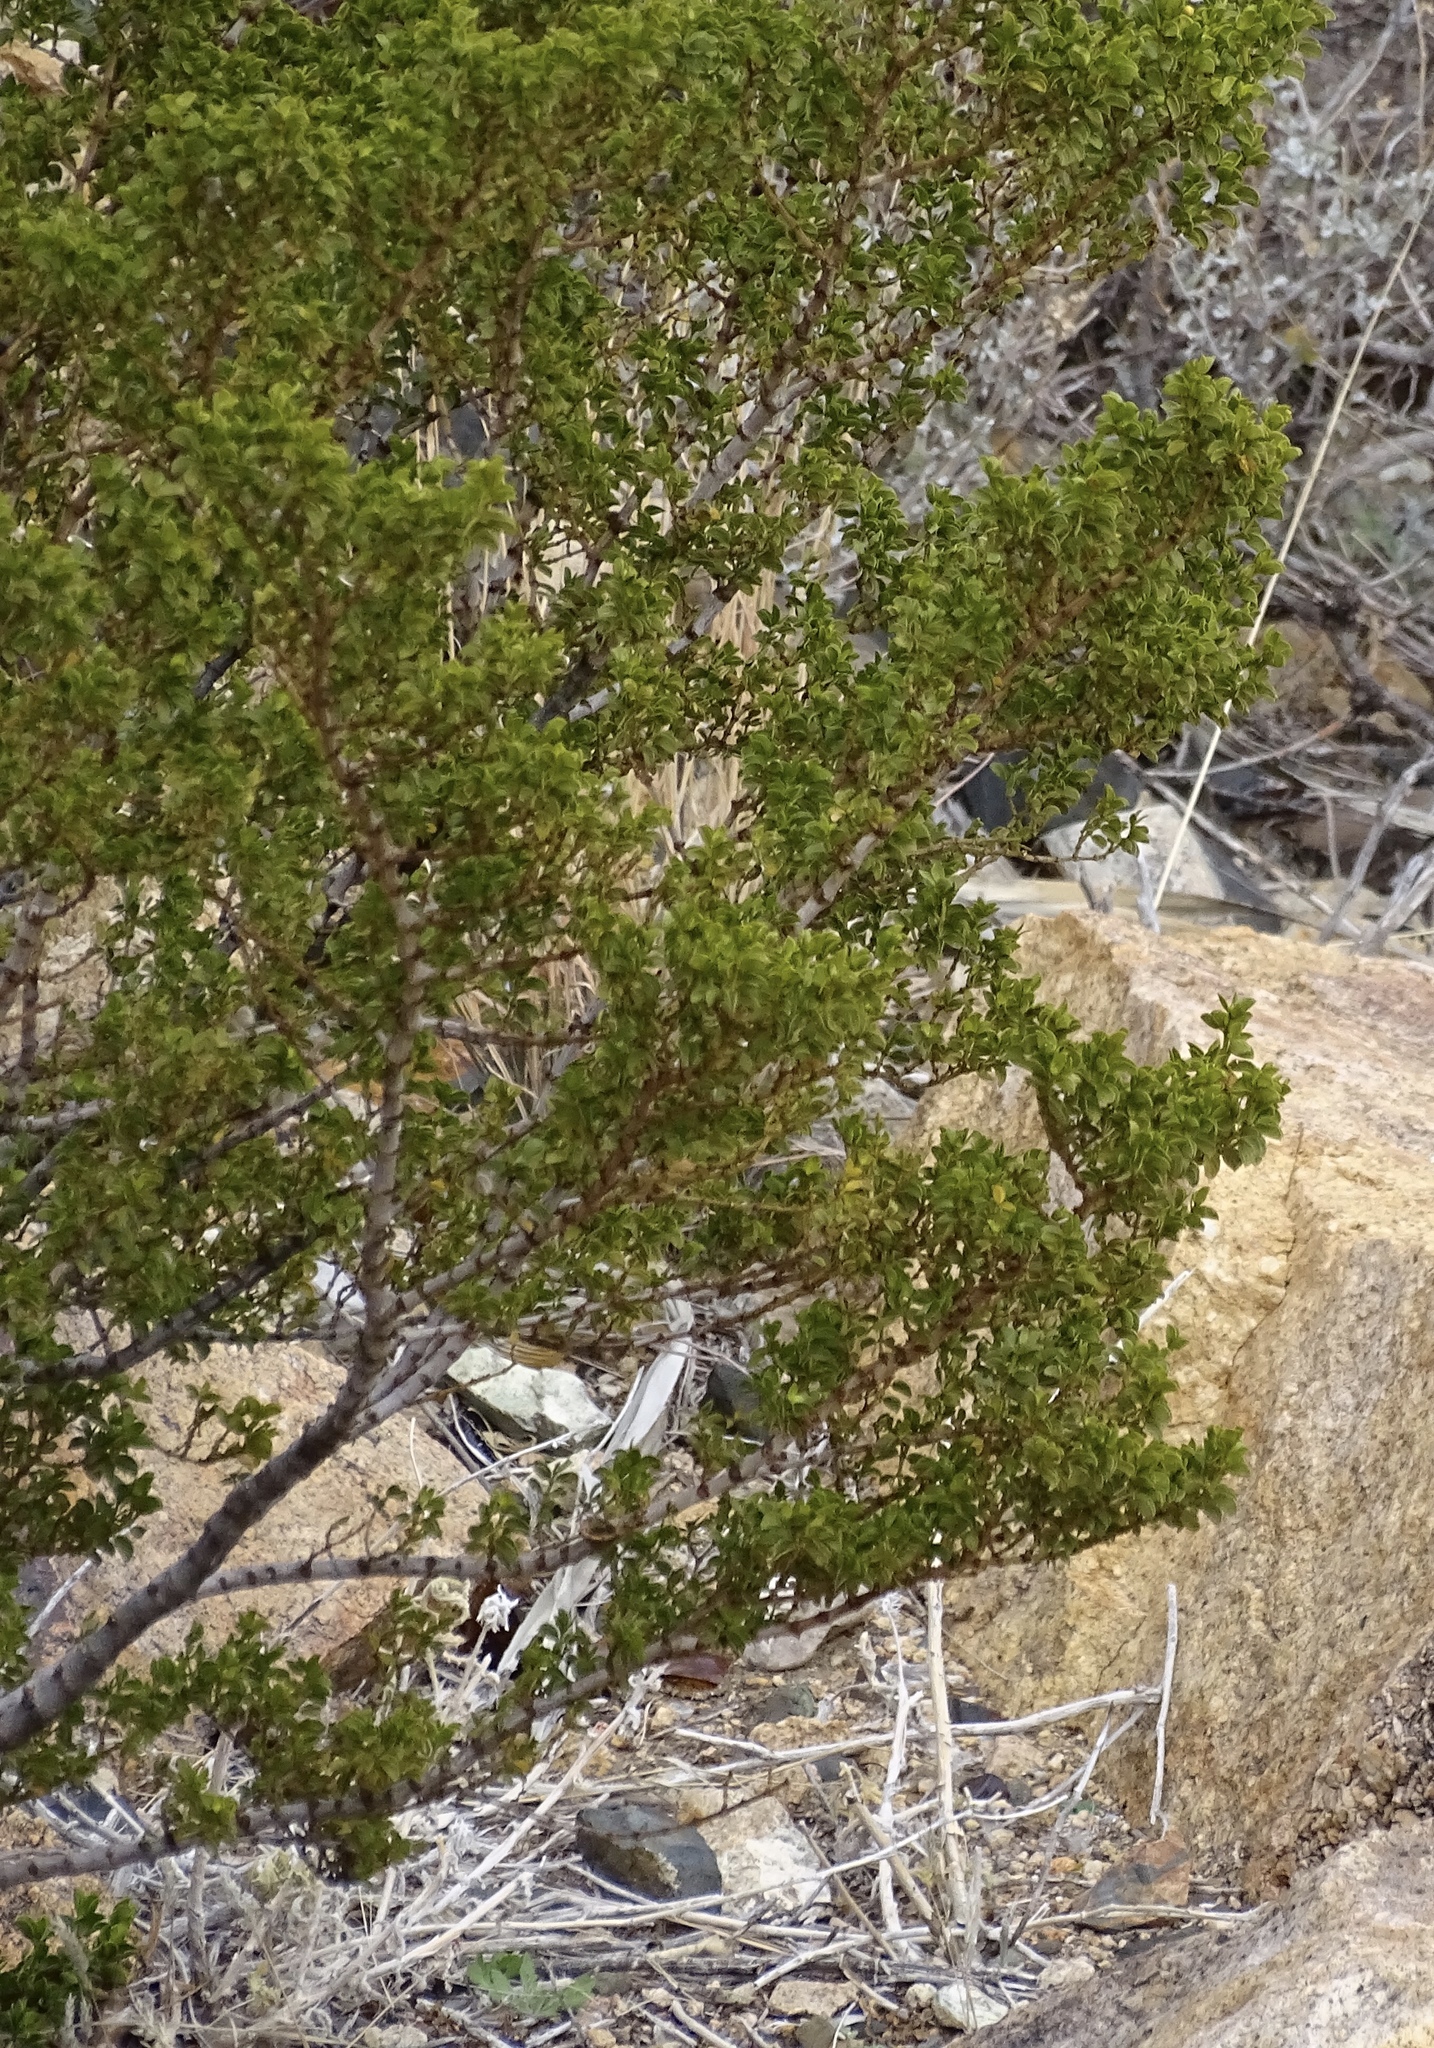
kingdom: Plantae
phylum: Tracheophyta
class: Magnoliopsida
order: Zygophyllales
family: Zygophyllaceae
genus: Larrea
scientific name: Larrea tridentata
